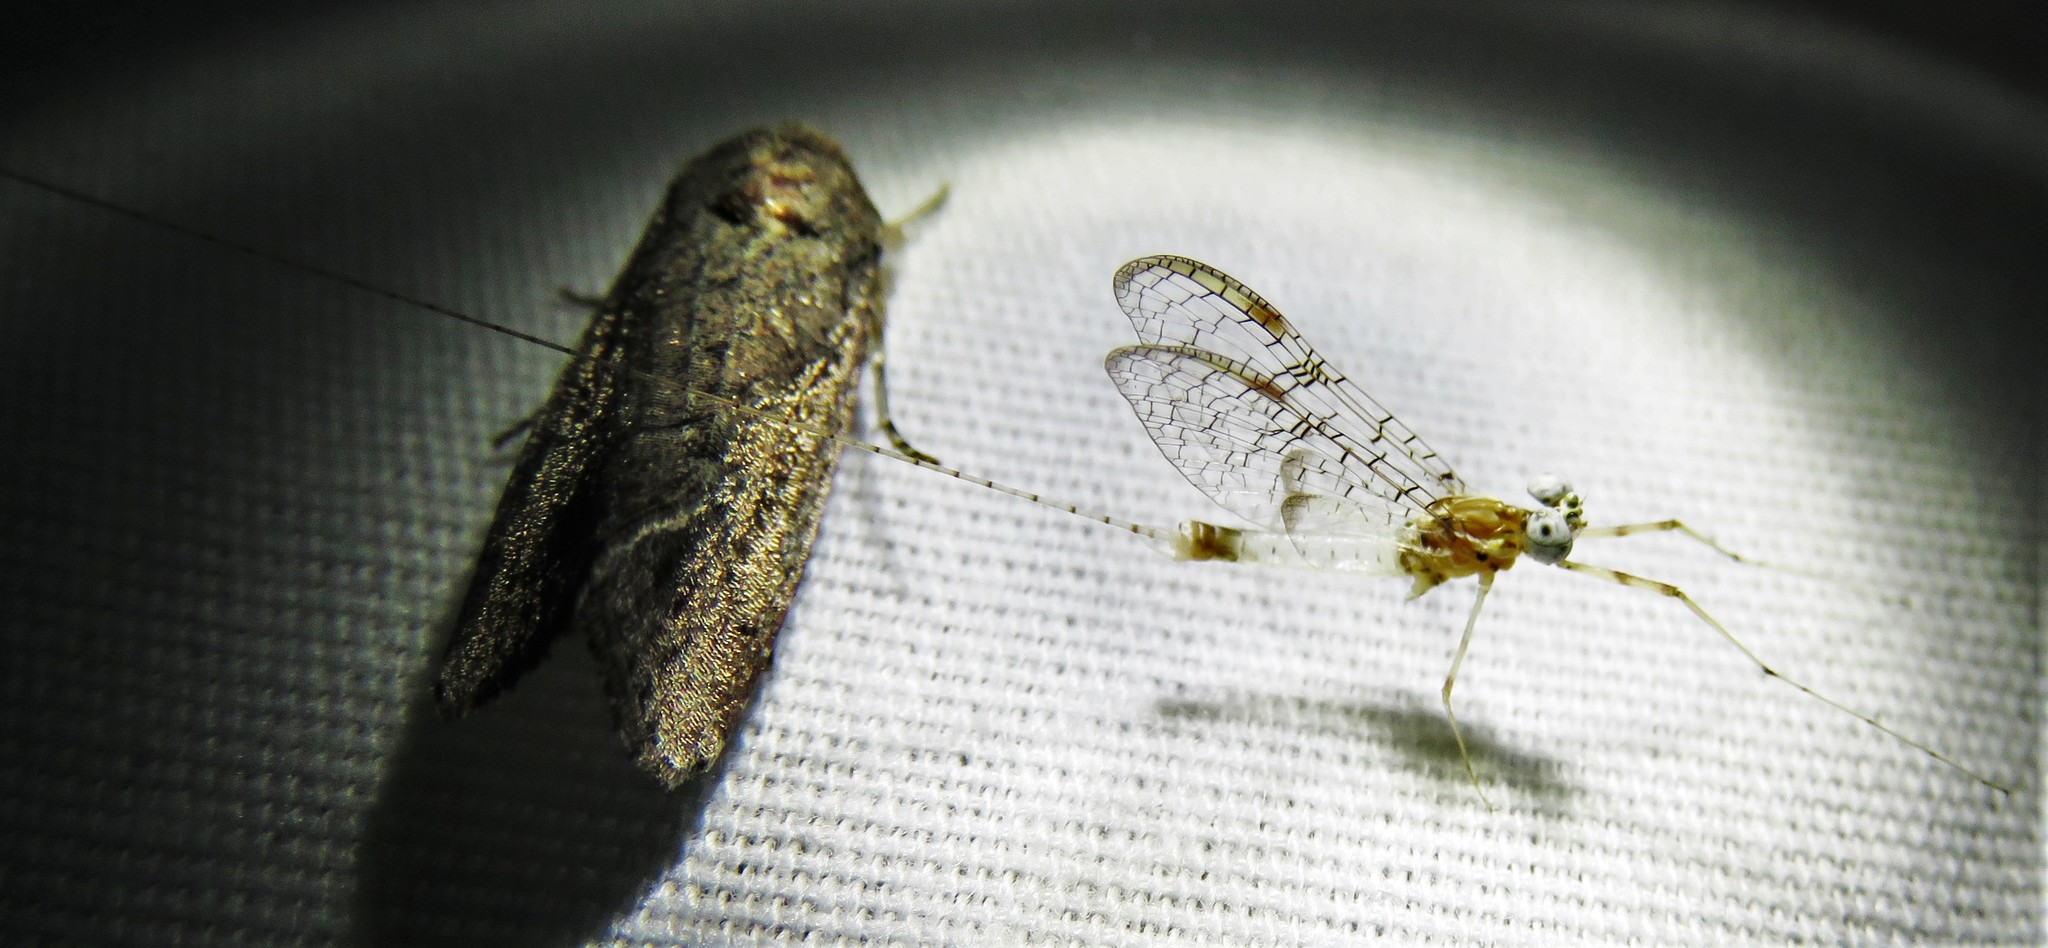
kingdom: Animalia
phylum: Arthropoda
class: Insecta
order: Ephemeroptera
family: Heptageniidae
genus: Stenonema
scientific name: Stenonema femoratum
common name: Dark cahill
